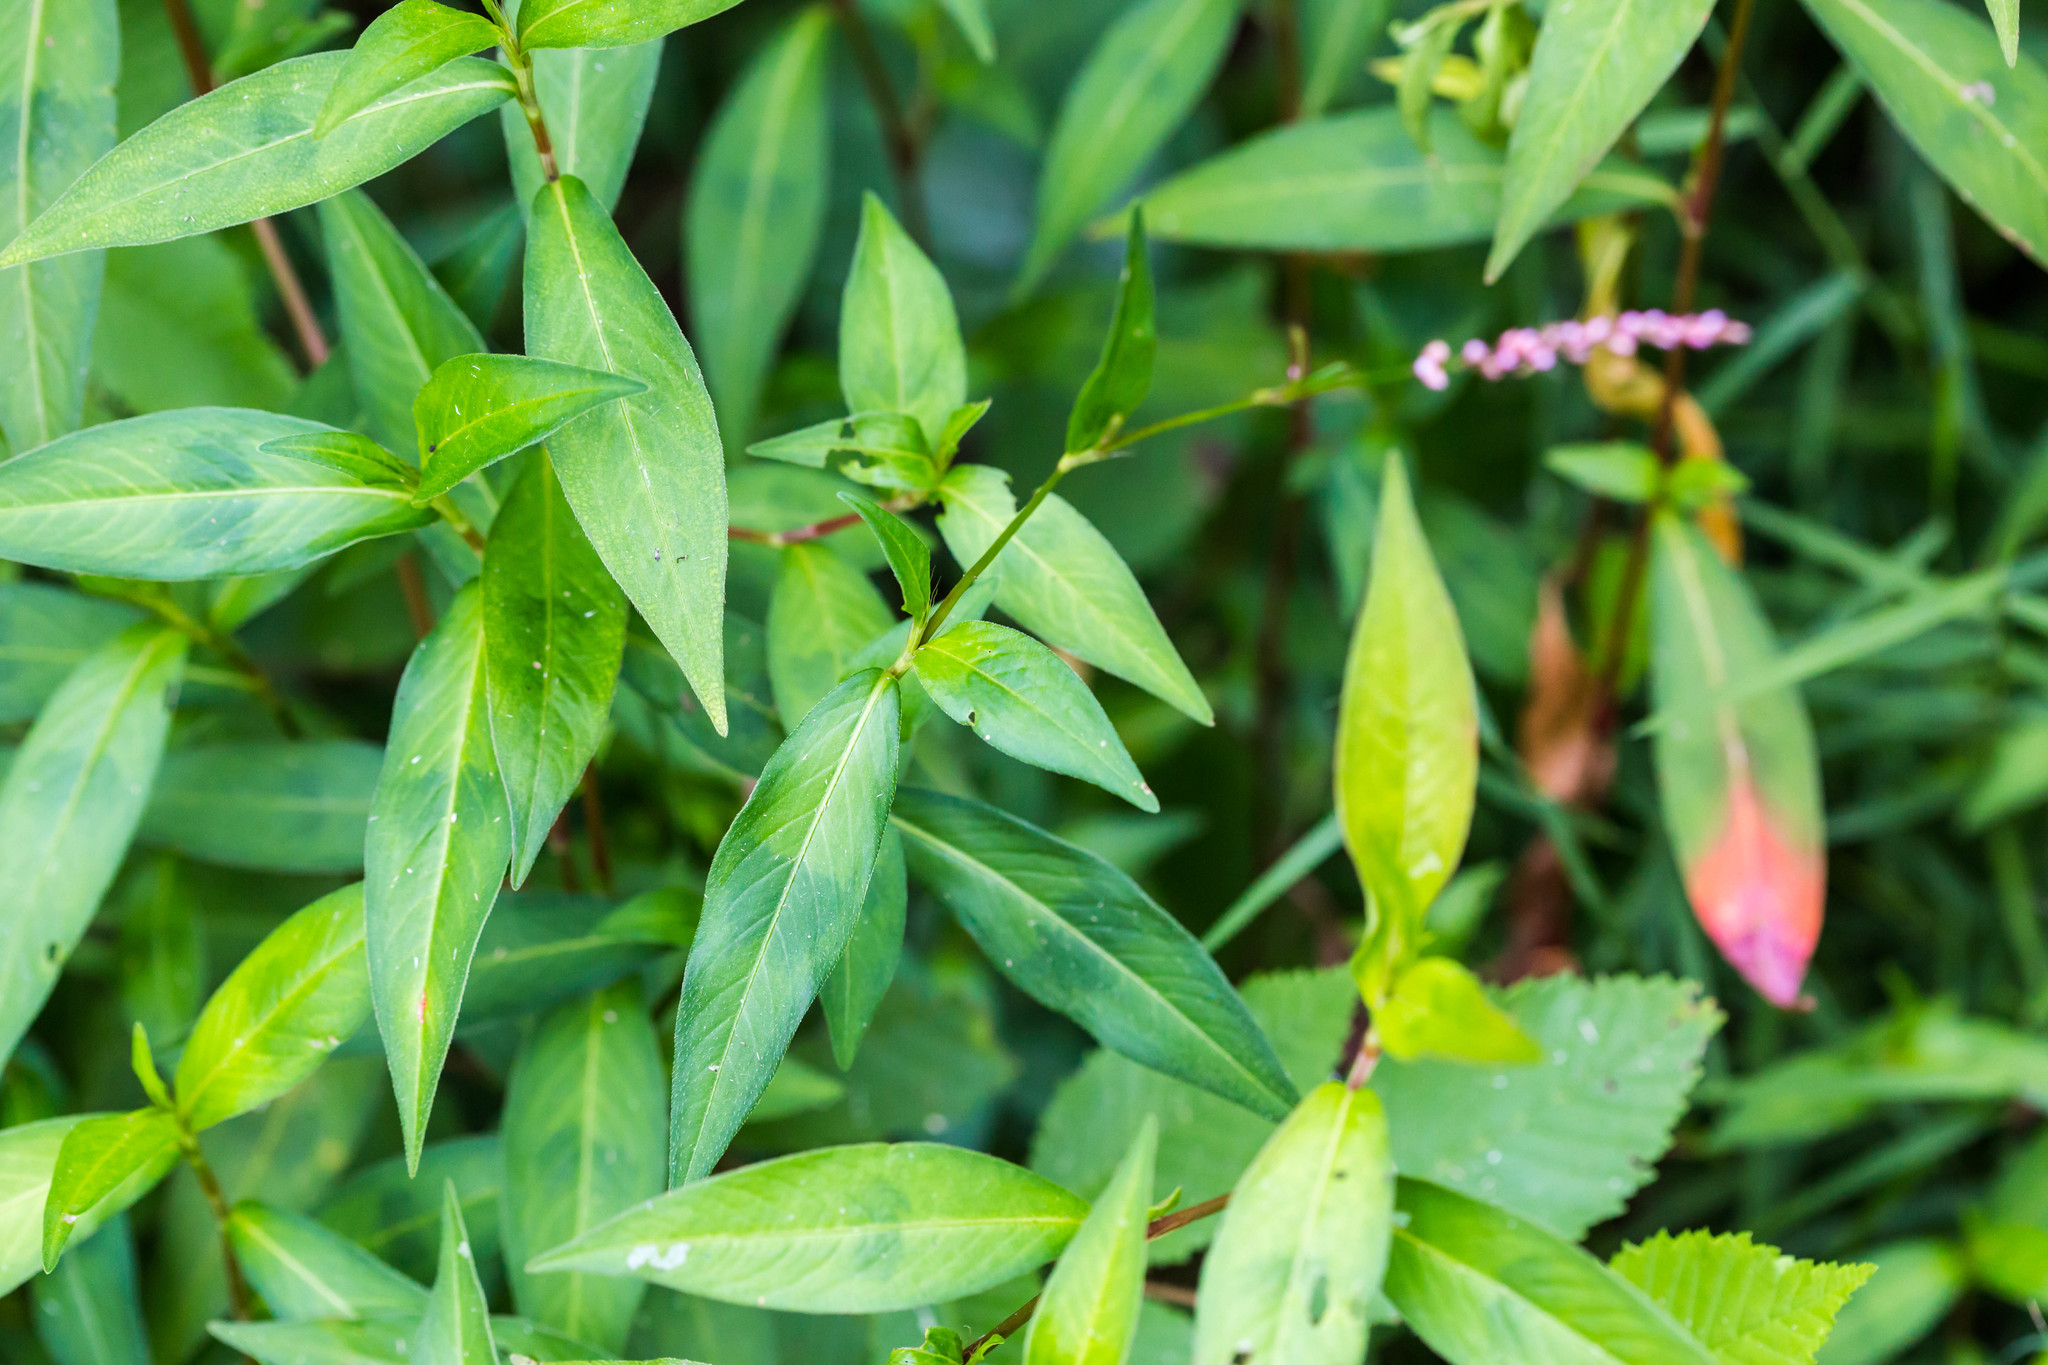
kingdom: Plantae
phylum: Tracheophyta
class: Magnoliopsida
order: Caryophyllales
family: Polygonaceae
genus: Persicaria
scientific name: Persicaria longiseta
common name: Bristly lady's-thumb
